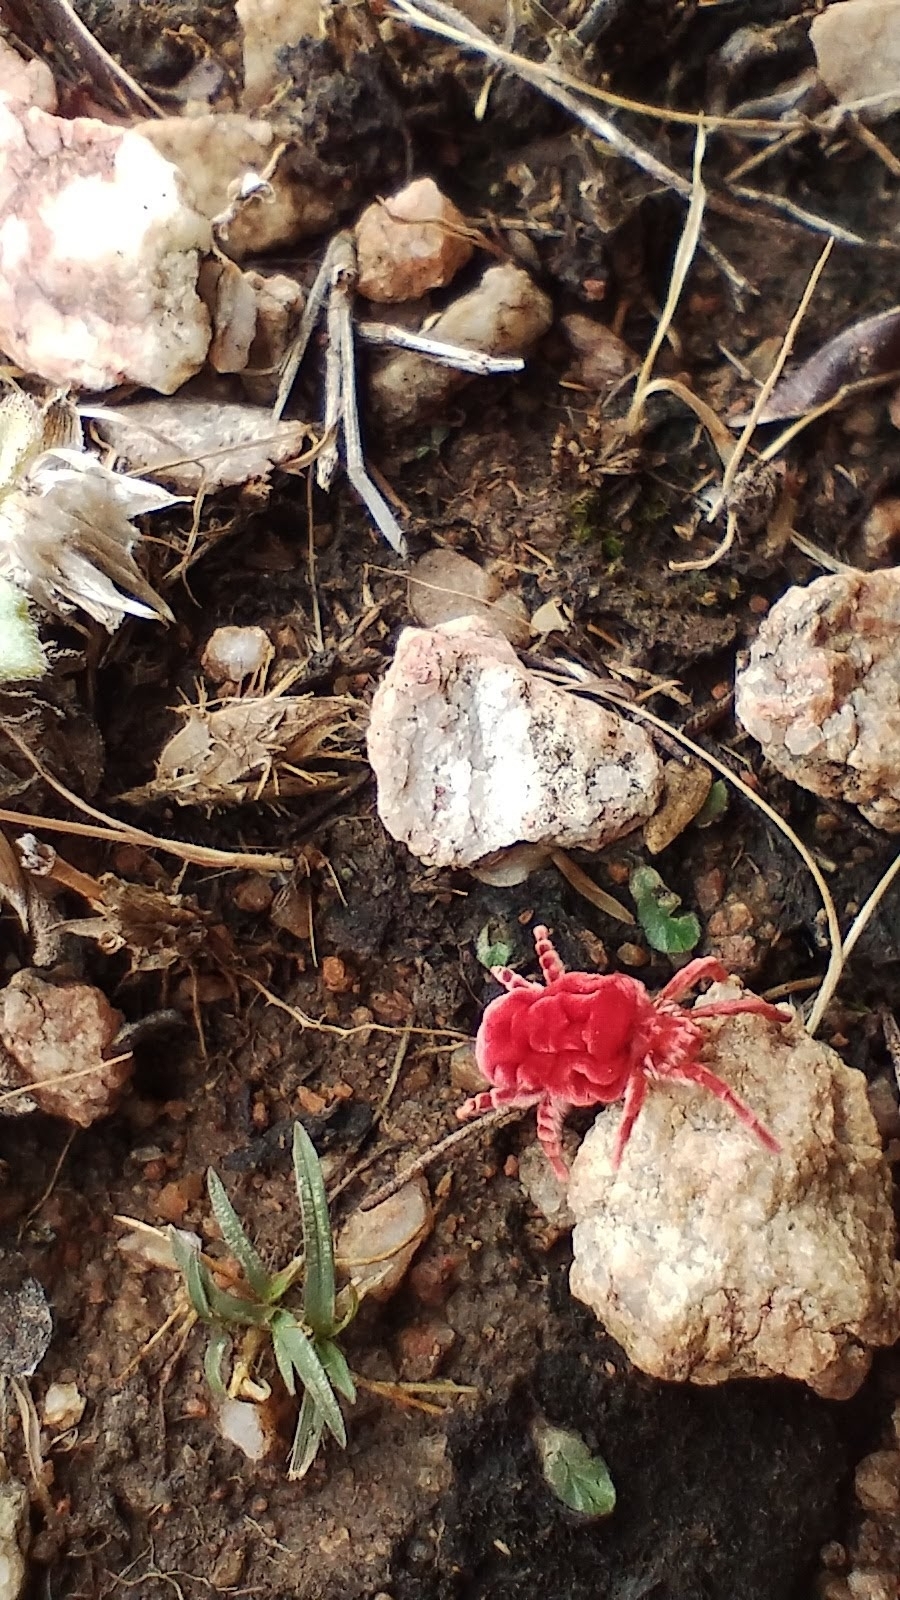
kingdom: Animalia
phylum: Arthropoda
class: Arachnida
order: Trombidiformes
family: Leeuwenhoekiidae
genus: Dinothrombium
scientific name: Dinothrombium
